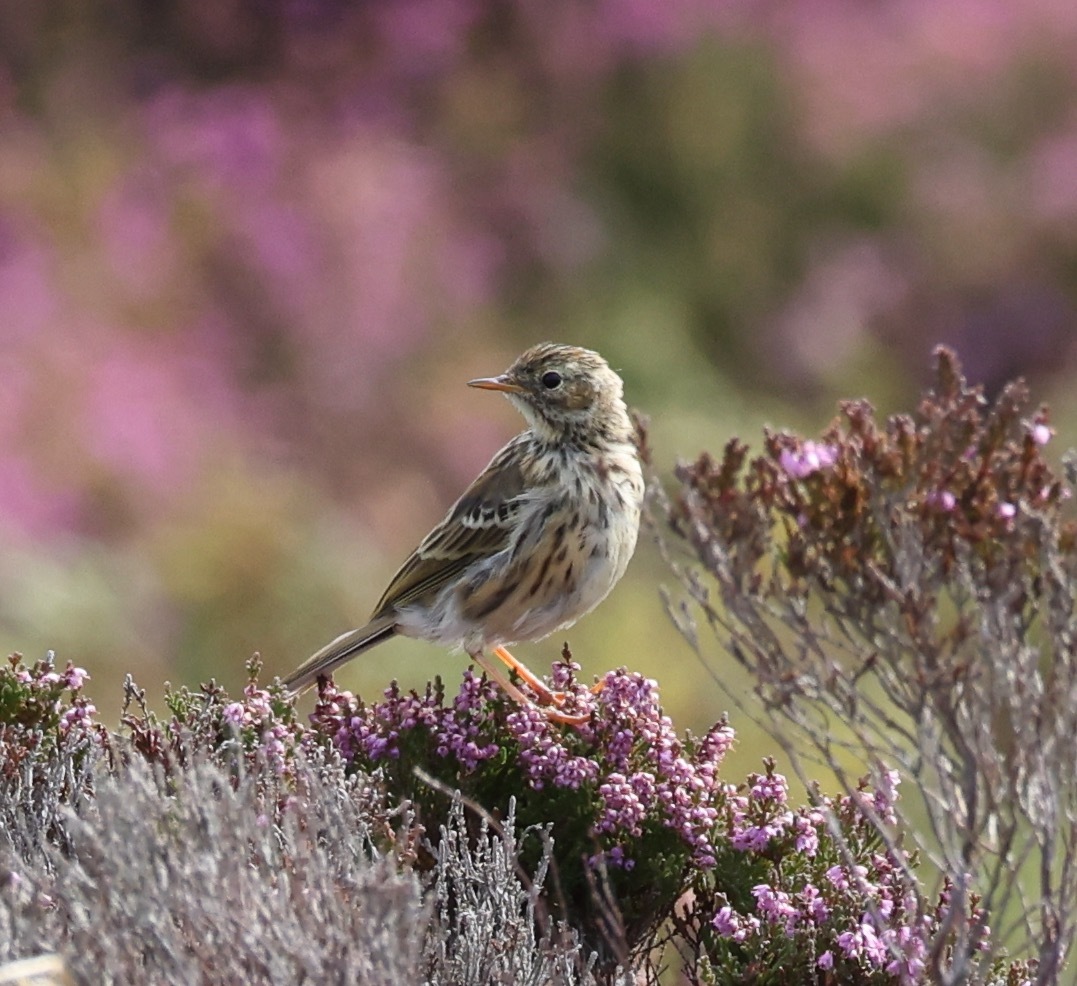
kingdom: Animalia
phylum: Chordata
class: Aves
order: Passeriformes
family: Motacillidae
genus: Anthus
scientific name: Anthus pratensis
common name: Meadow pipit
